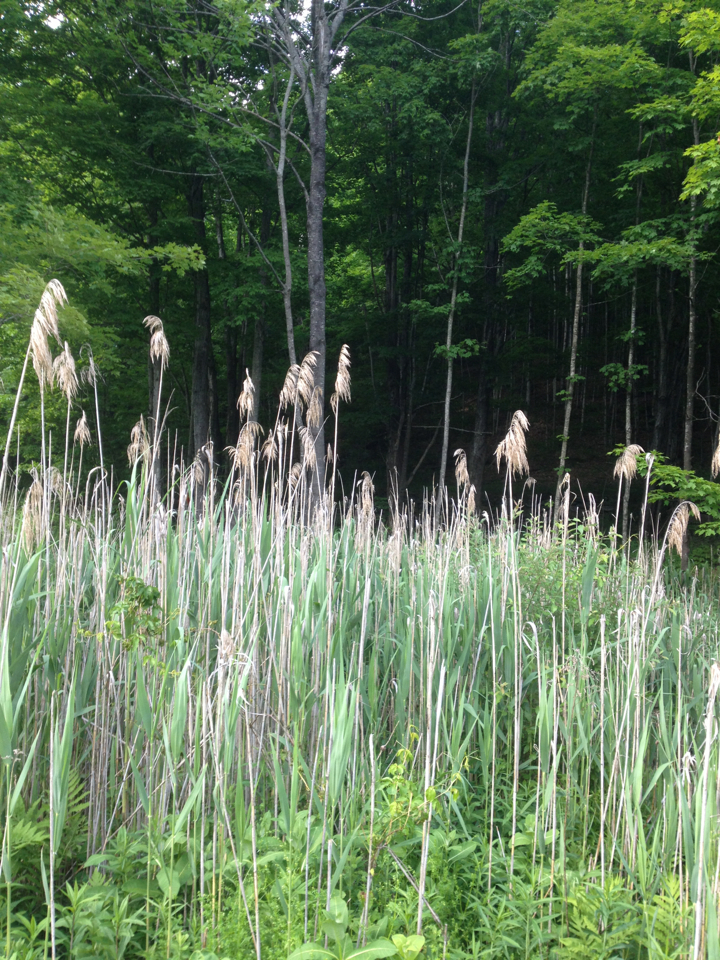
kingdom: Plantae
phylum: Tracheophyta
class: Liliopsida
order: Poales
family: Poaceae
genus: Phragmites
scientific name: Phragmites australis
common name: Common reed
